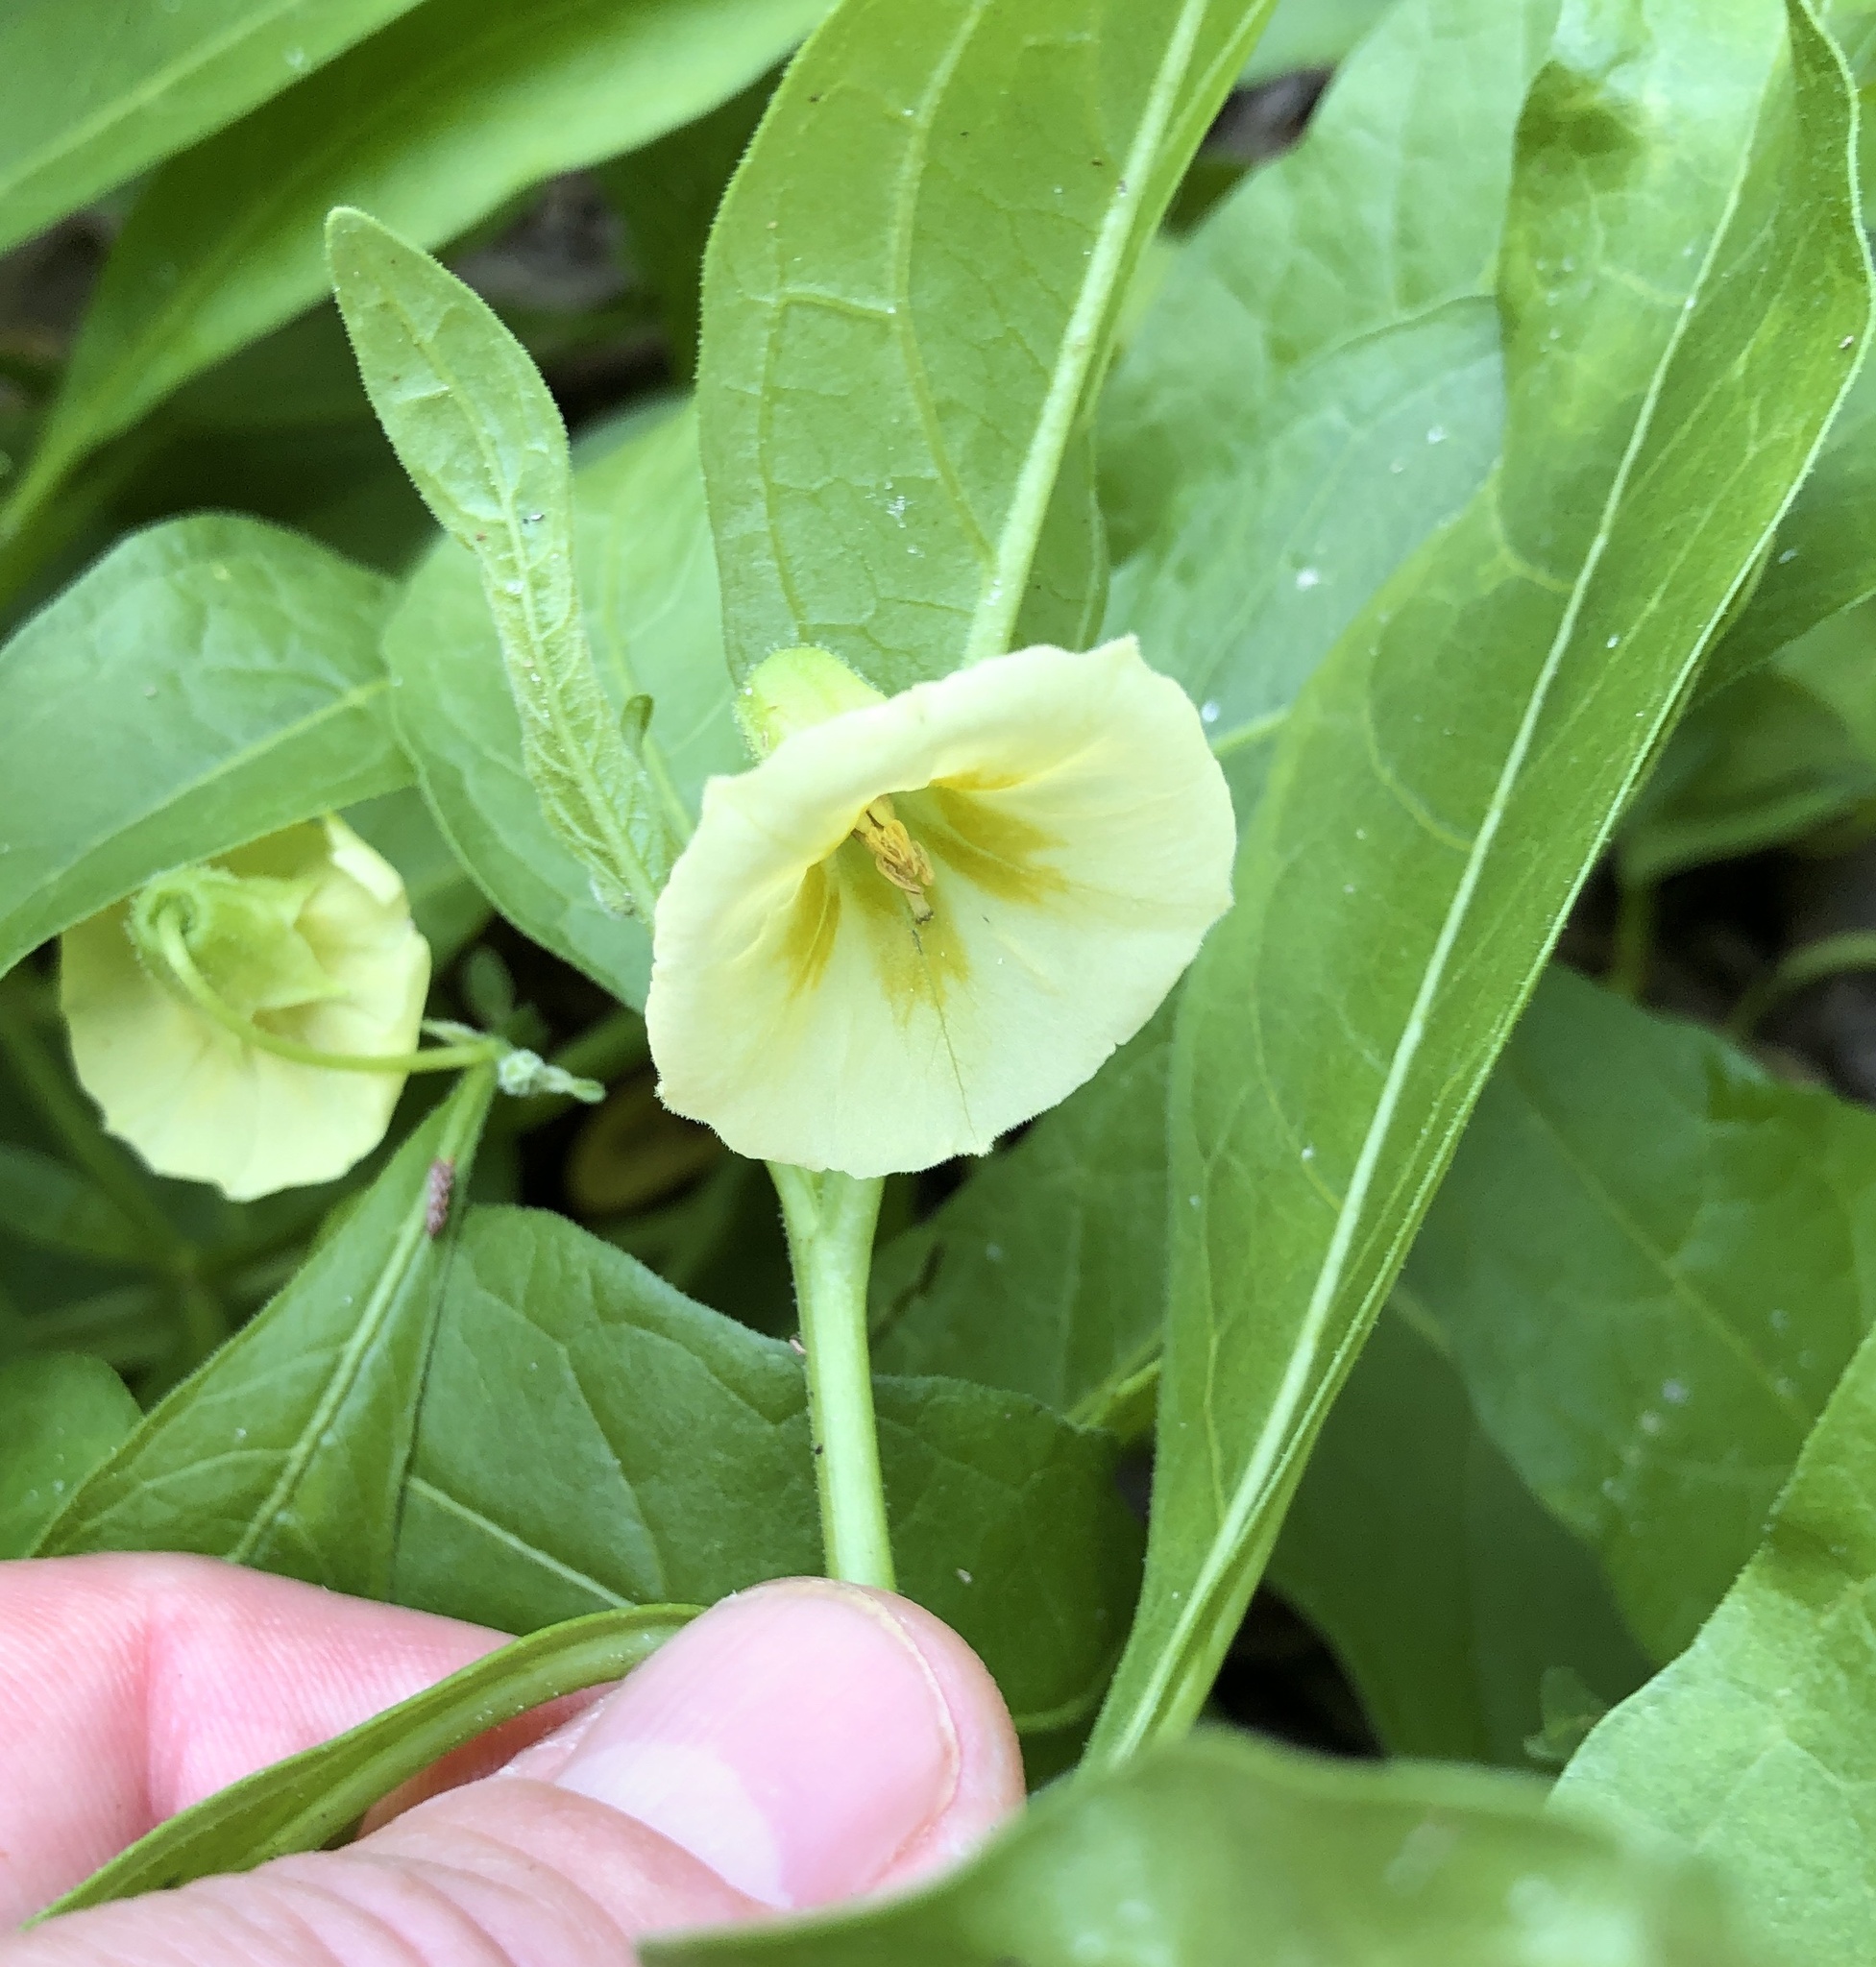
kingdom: Plantae
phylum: Tracheophyta
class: Magnoliopsida
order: Solanales
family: Solanaceae
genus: Physalis
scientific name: Physalis elliottii
